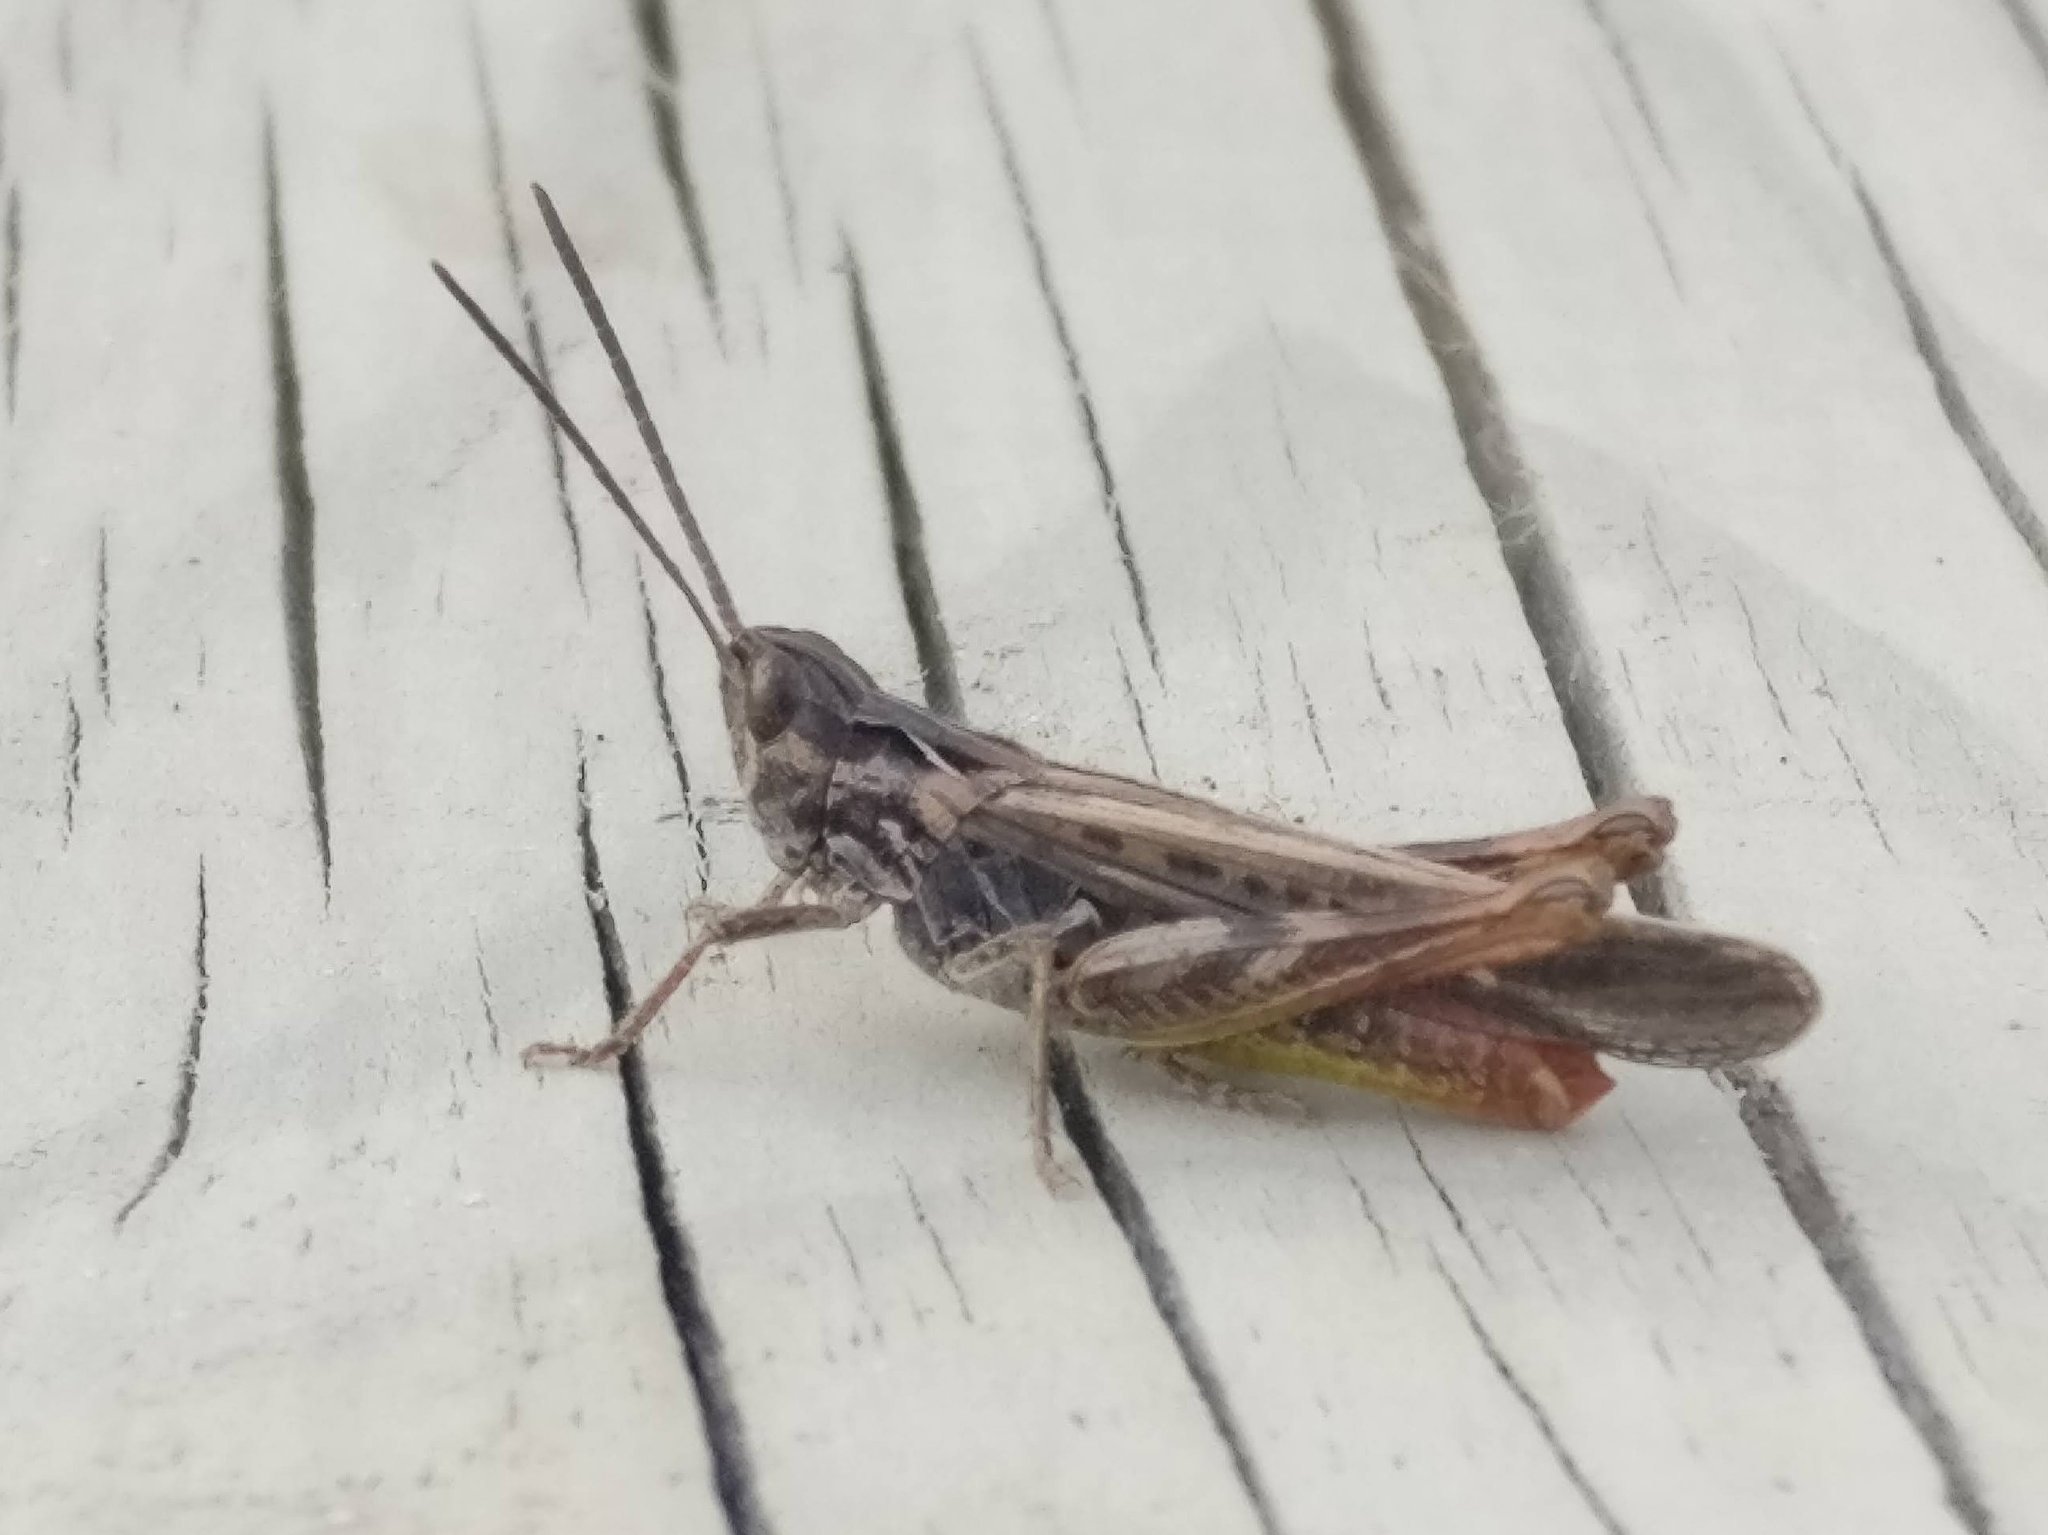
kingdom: Animalia
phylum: Arthropoda
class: Insecta
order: Orthoptera
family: Acrididae
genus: Chorthippus
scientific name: Chorthippus brunneus
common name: Field grasshopper
